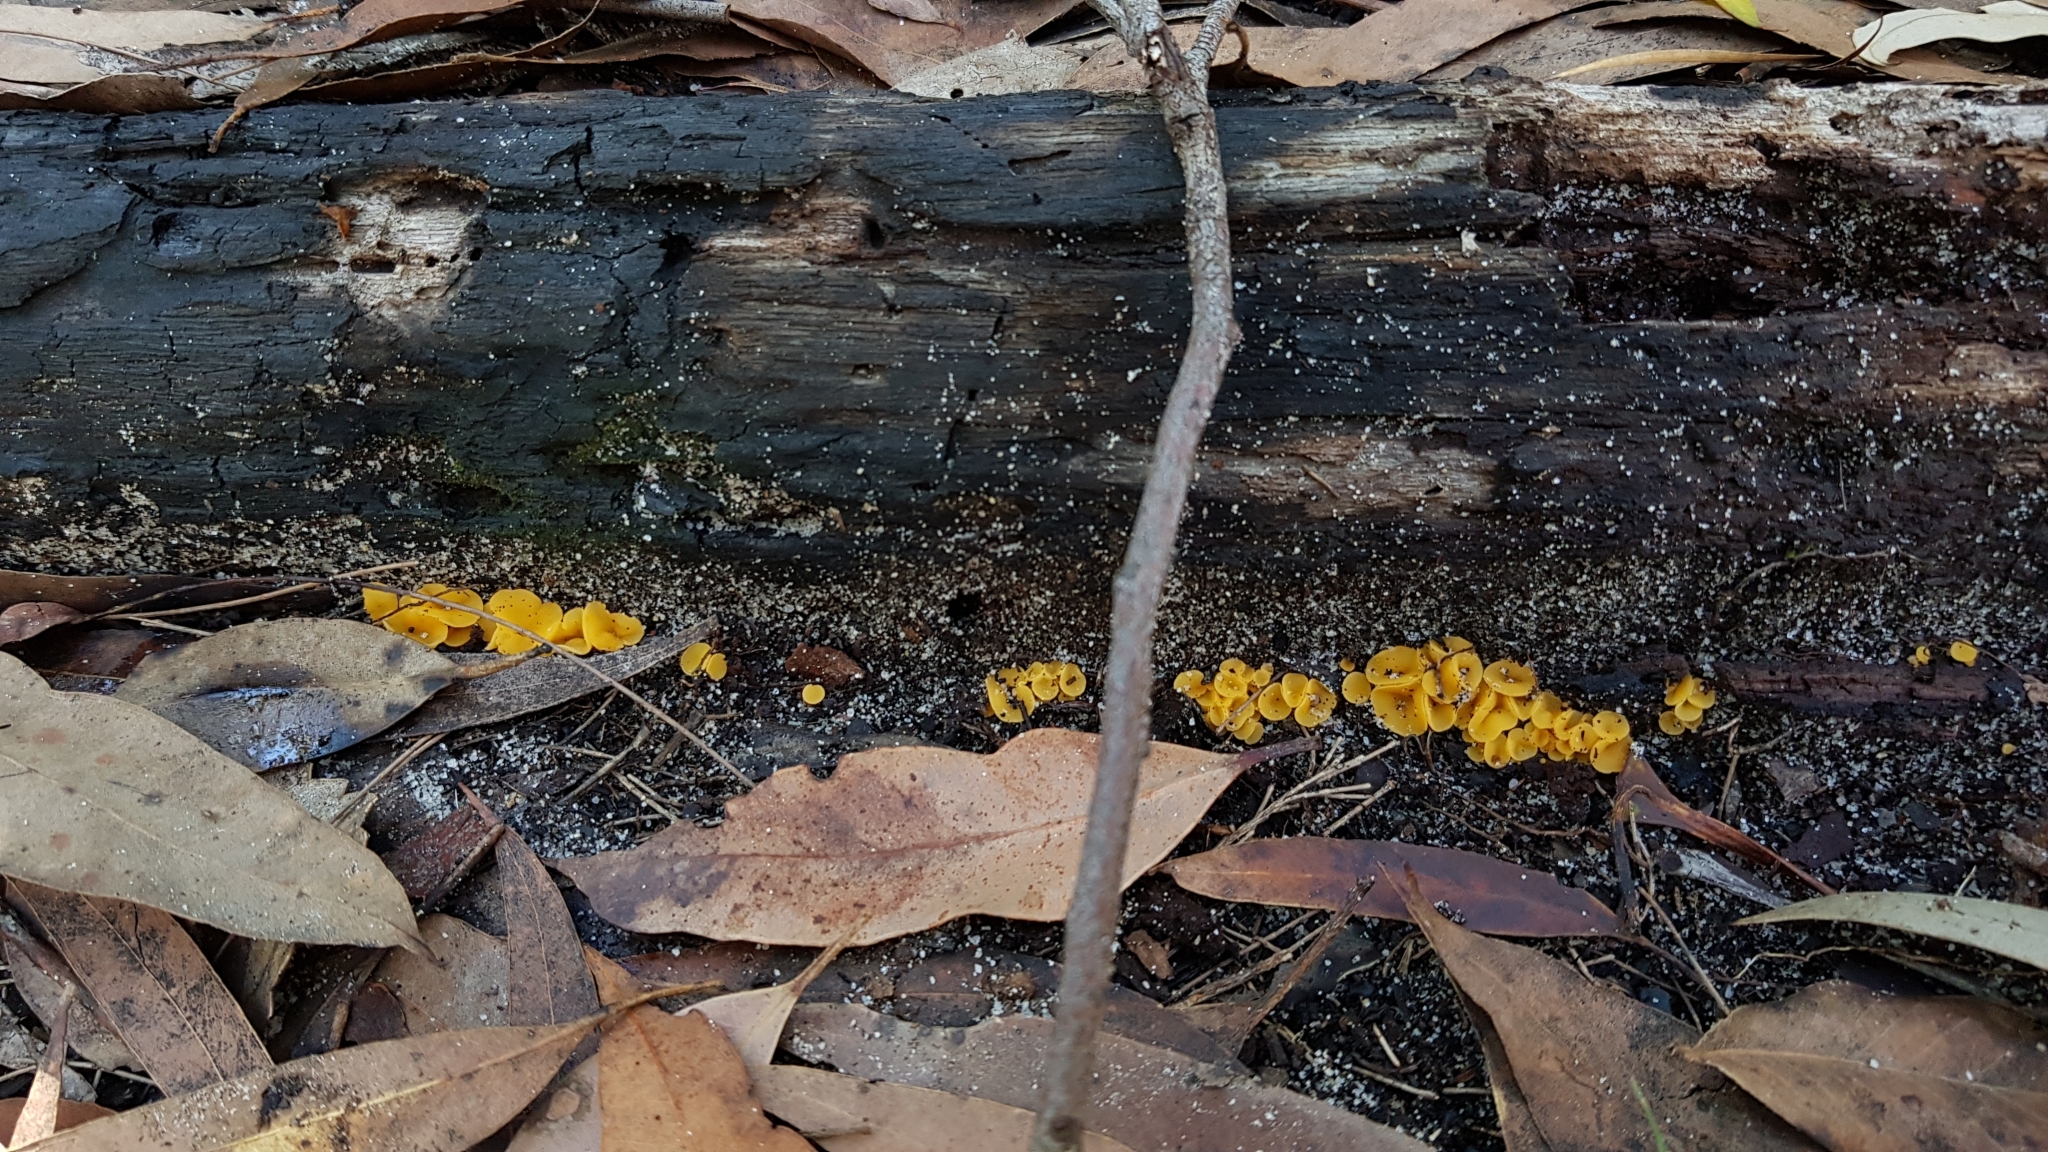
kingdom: Fungi
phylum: Ascomycota
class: Leotiomycetes
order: Helotiales
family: Helotiaceae
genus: Phaeohelotium
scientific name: Phaeohelotium baileyanum
